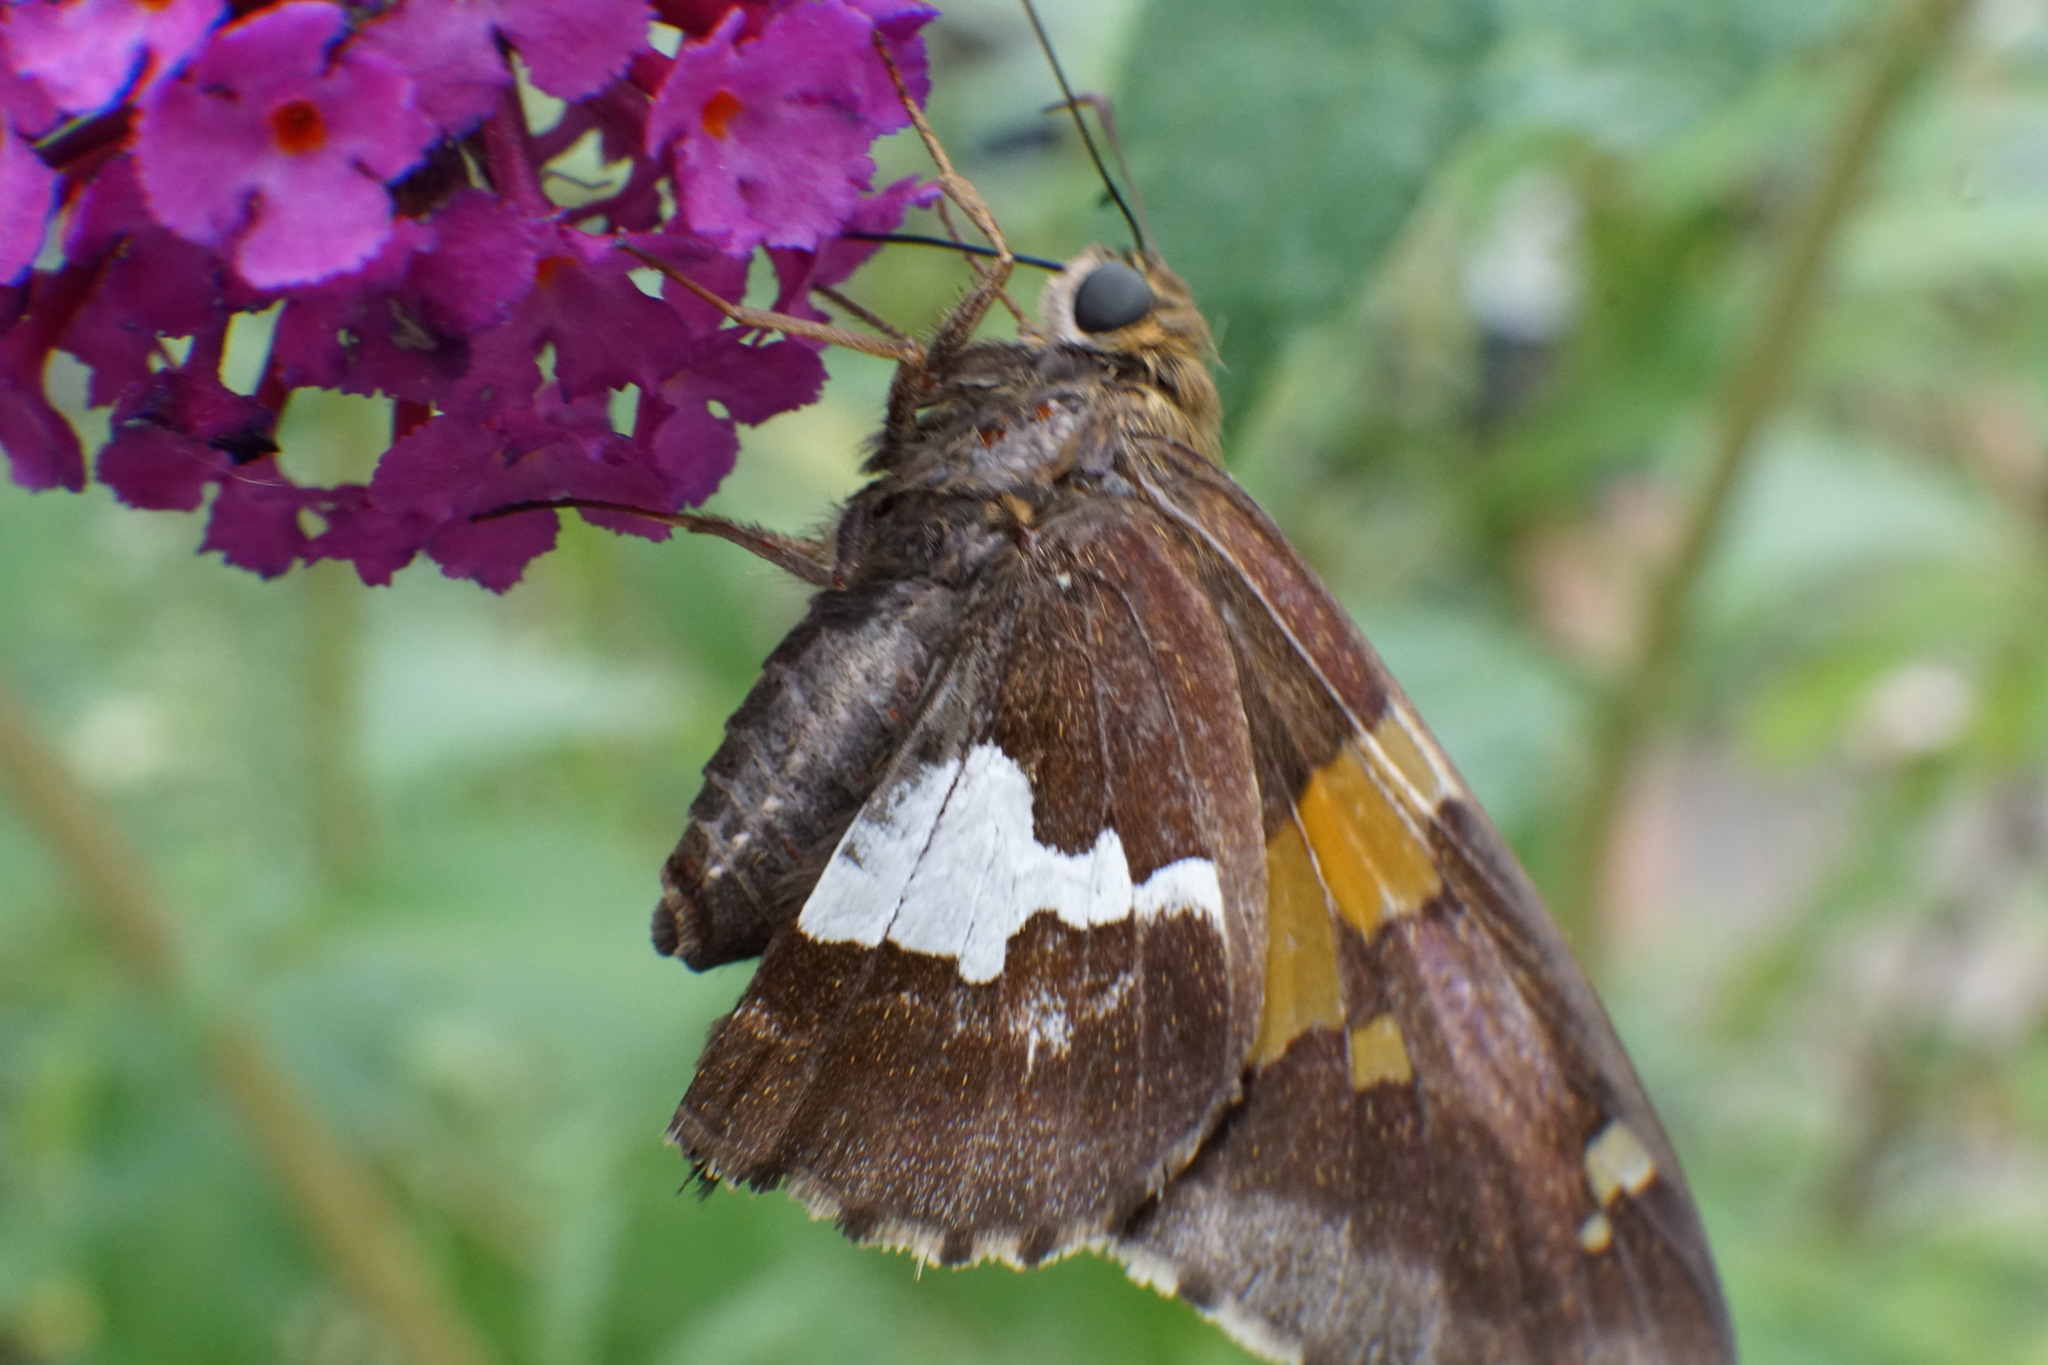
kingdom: Animalia
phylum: Arthropoda
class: Insecta
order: Lepidoptera
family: Hesperiidae
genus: Epargyreus
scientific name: Epargyreus clarus
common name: Silver-spotted skipper
